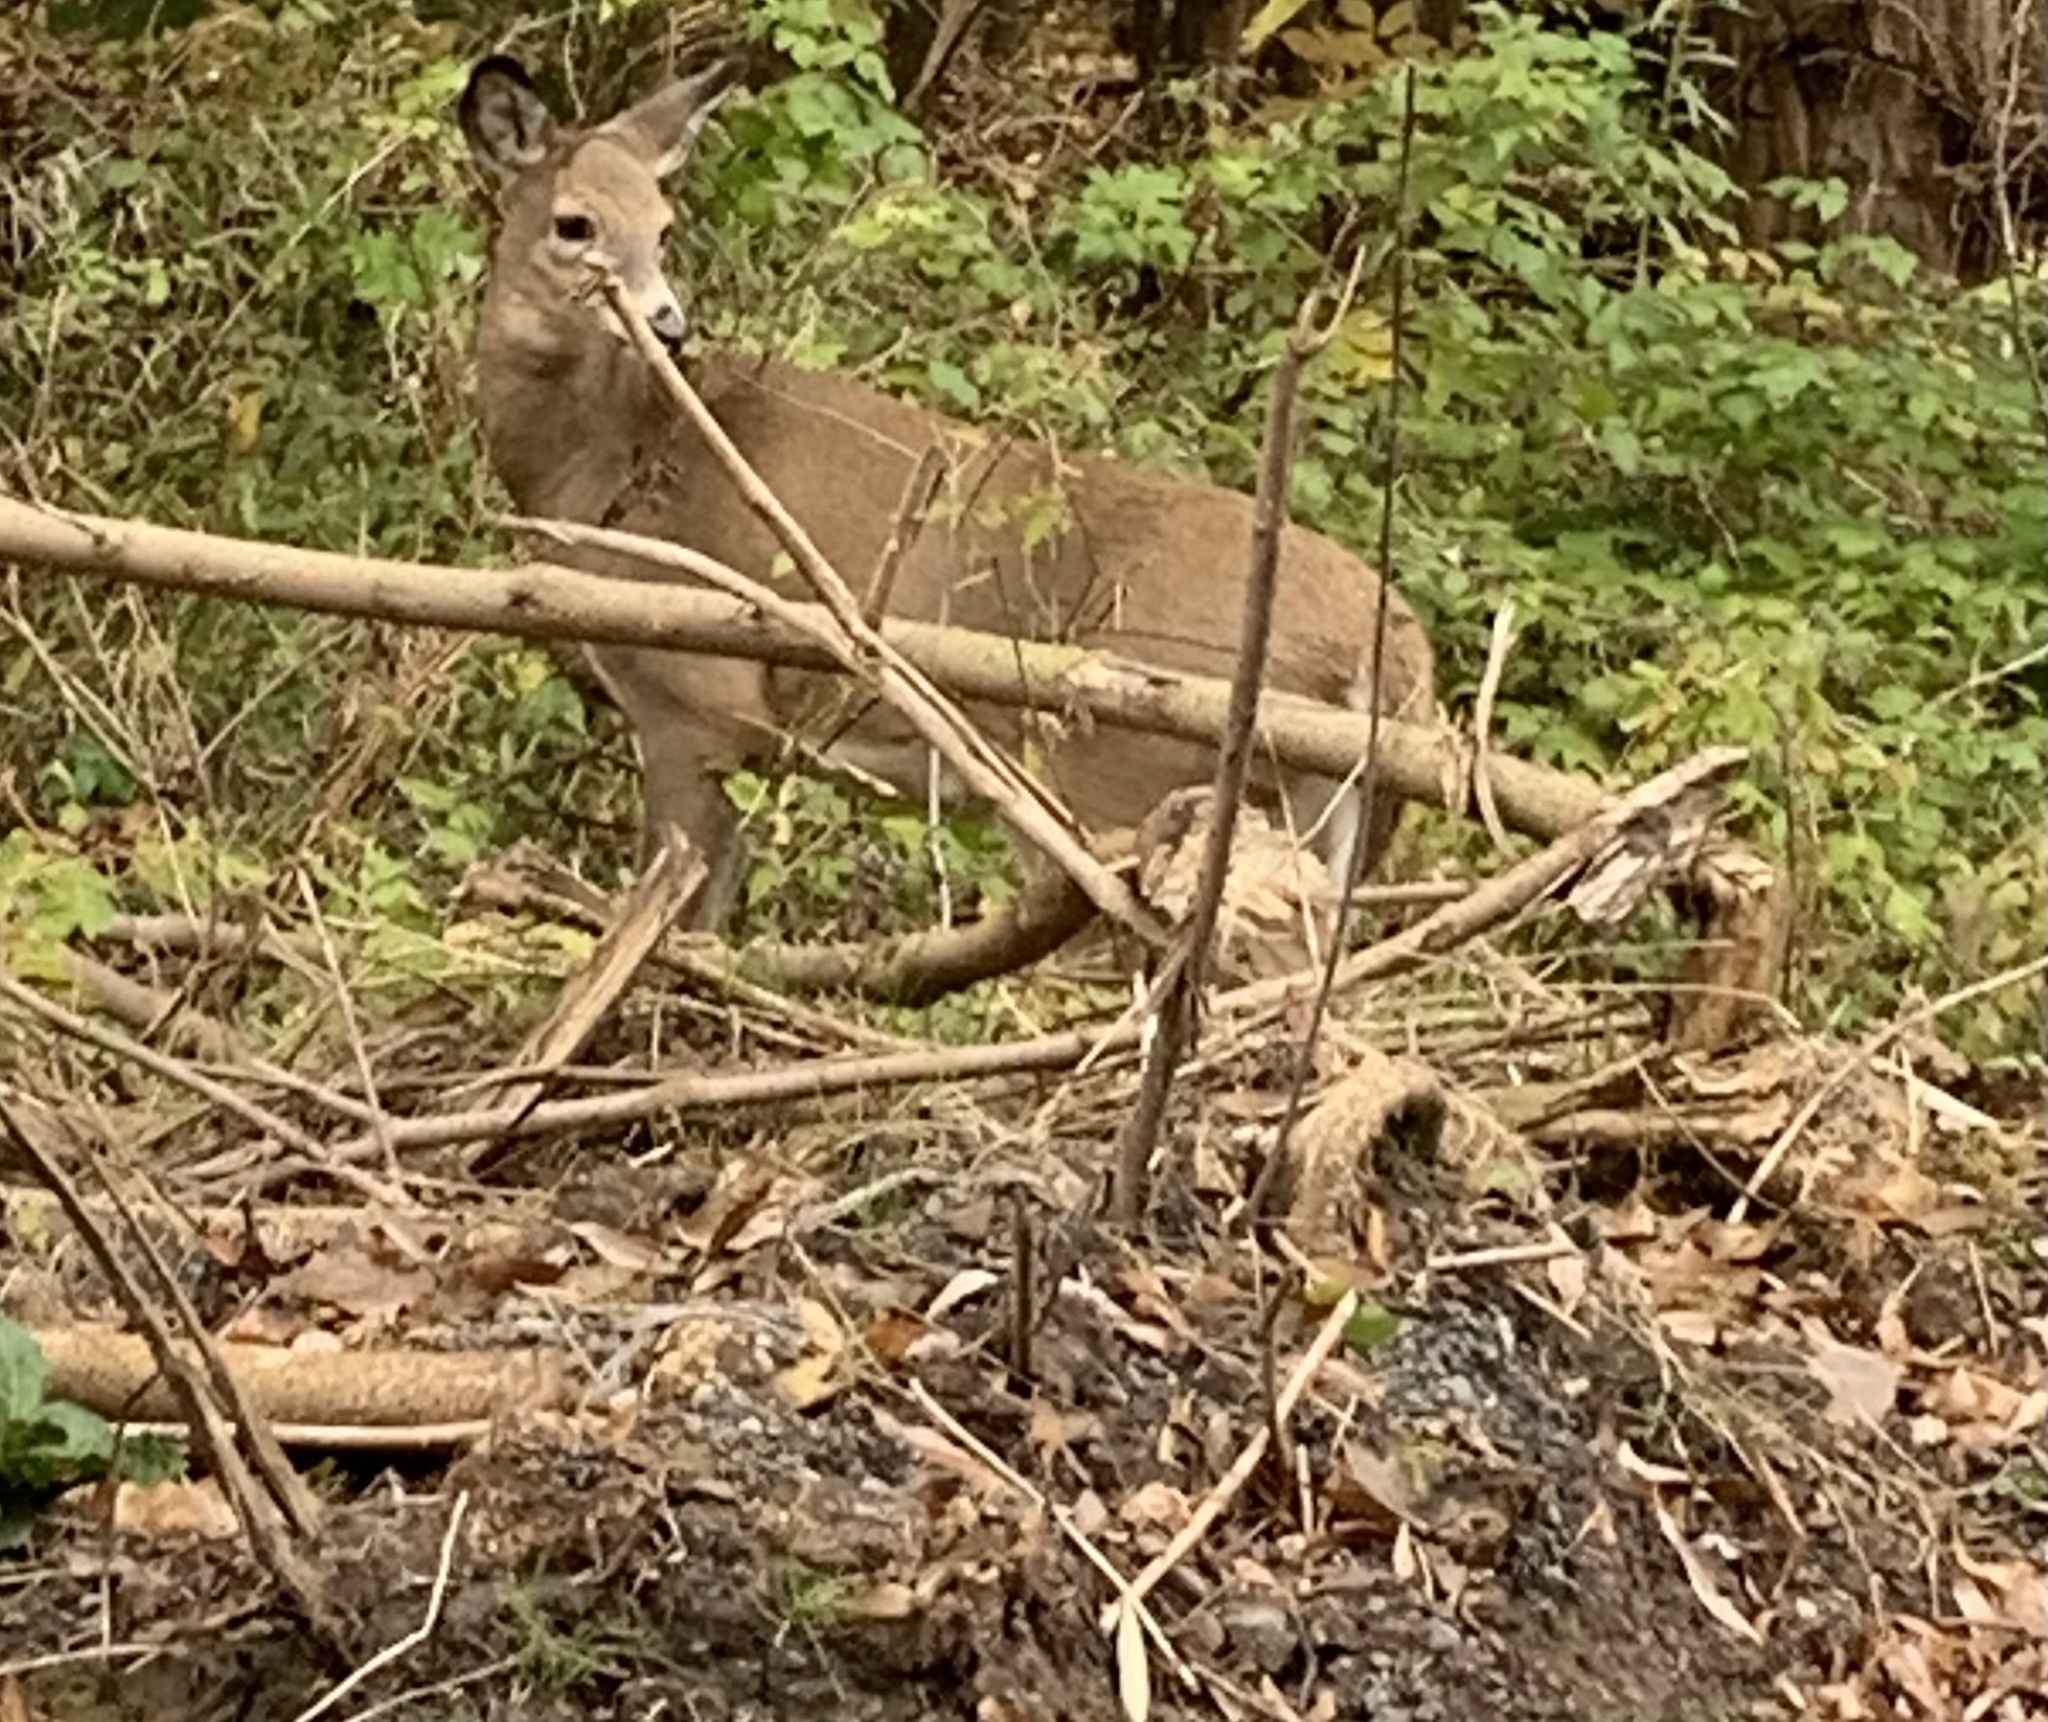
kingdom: Animalia
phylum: Chordata
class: Mammalia
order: Artiodactyla
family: Cervidae
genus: Odocoileus
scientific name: Odocoileus virginianus
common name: White-tailed deer
